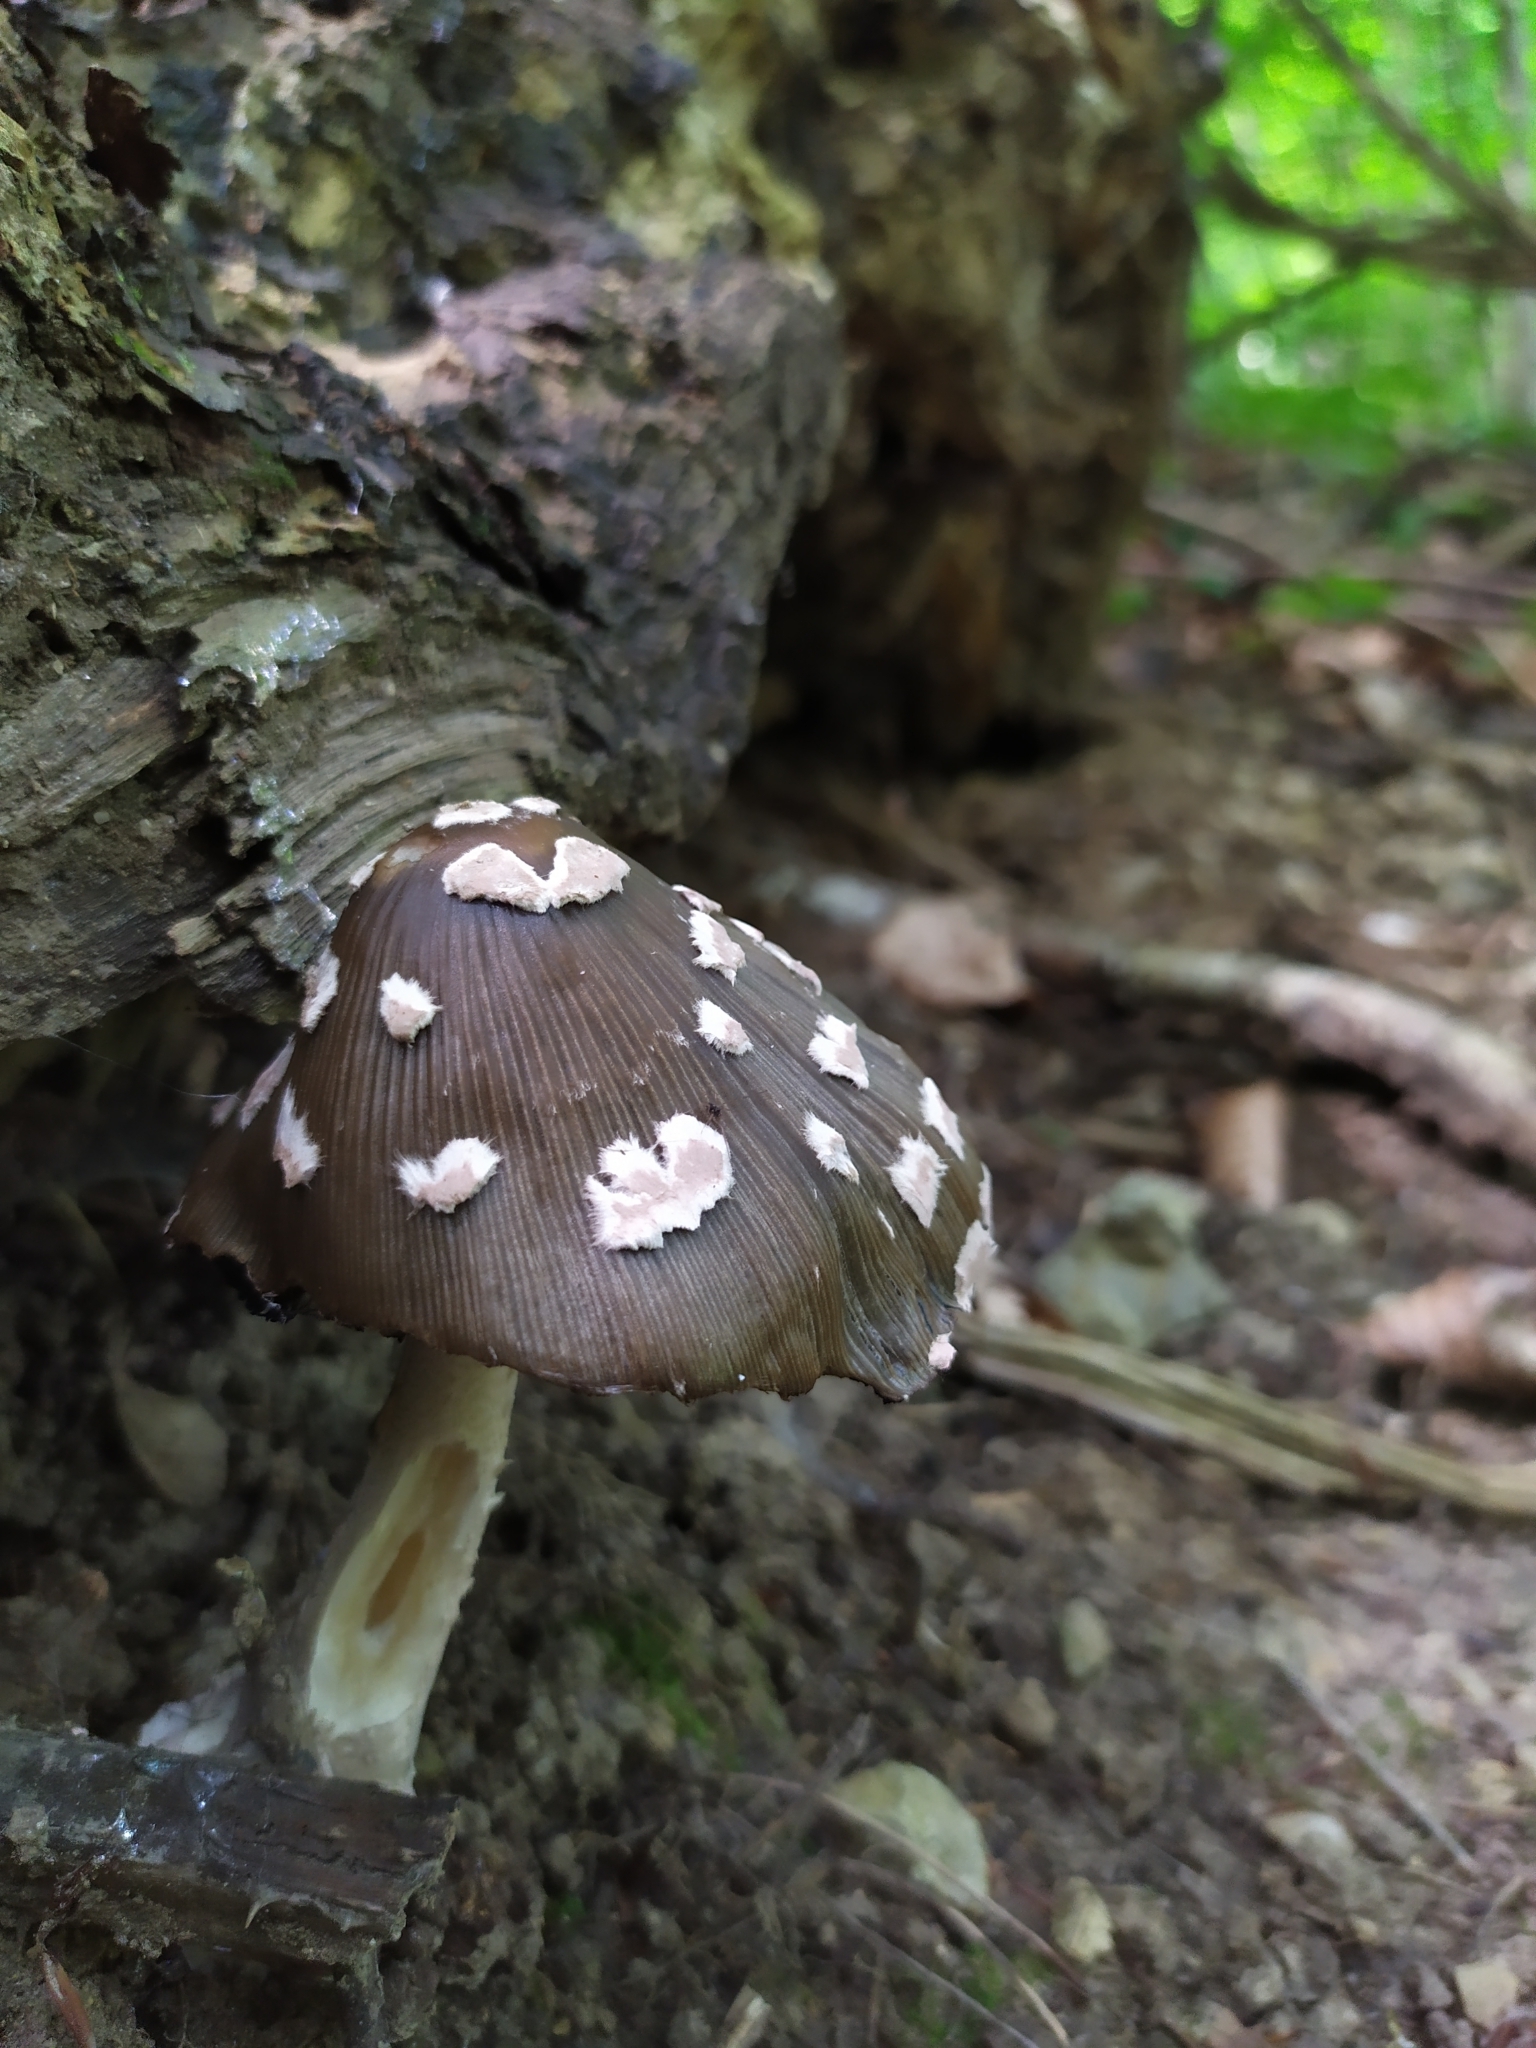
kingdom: Fungi
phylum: Basidiomycota
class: Agaricomycetes
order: Agaricales
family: Psathyrellaceae
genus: Coprinopsis
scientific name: Coprinopsis picacea
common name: Magpie inkcap
